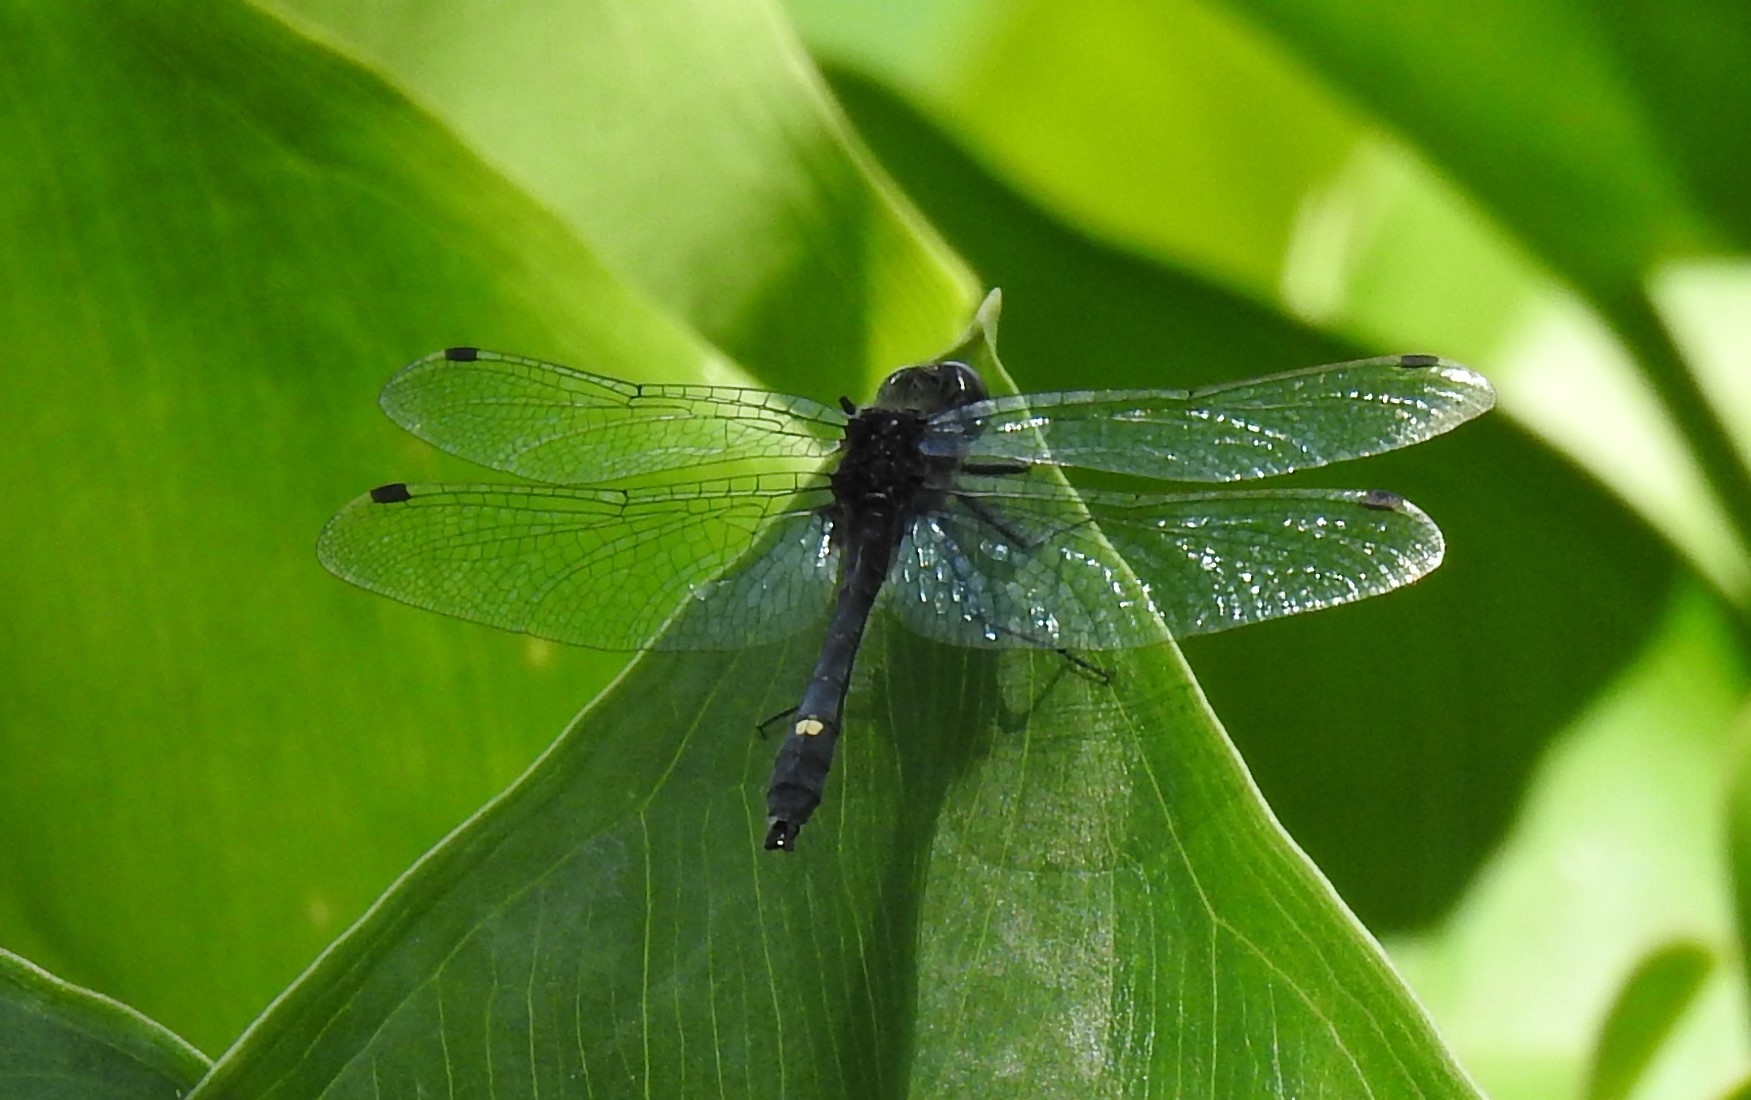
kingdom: Animalia
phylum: Arthropoda
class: Insecta
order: Odonata
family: Libellulidae
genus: Leucorrhinia
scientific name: Leucorrhinia intacta
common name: Dot-tailed whiteface
